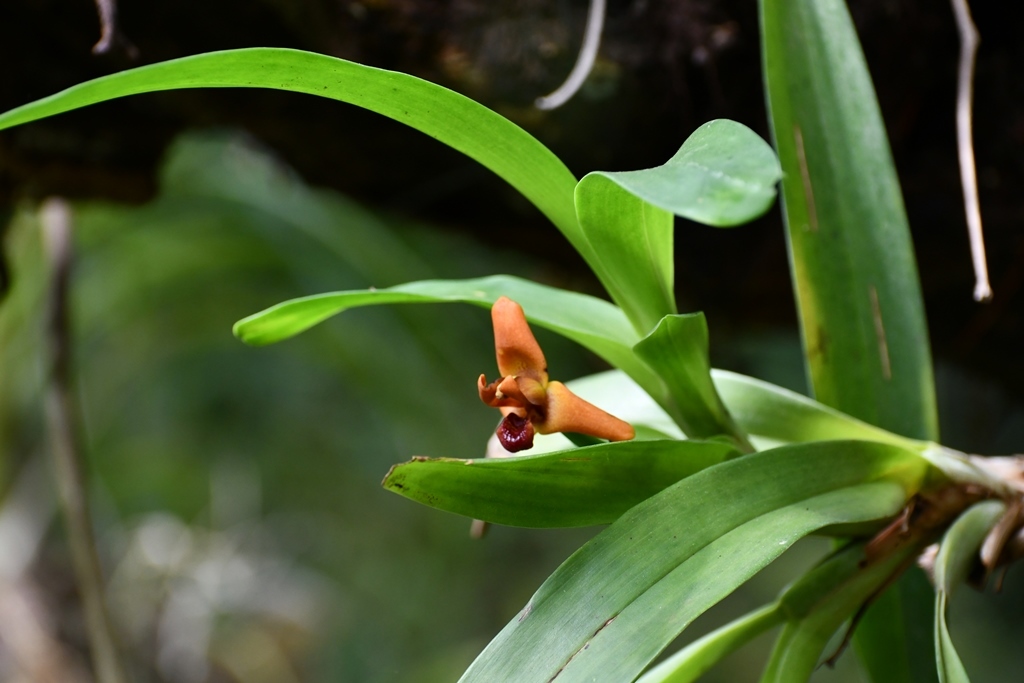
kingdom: Plantae
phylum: Tracheophyta
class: Liliopsida
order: Asparagales
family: Orchidaceae
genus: Maxillaria
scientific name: Maxillaria elatior
